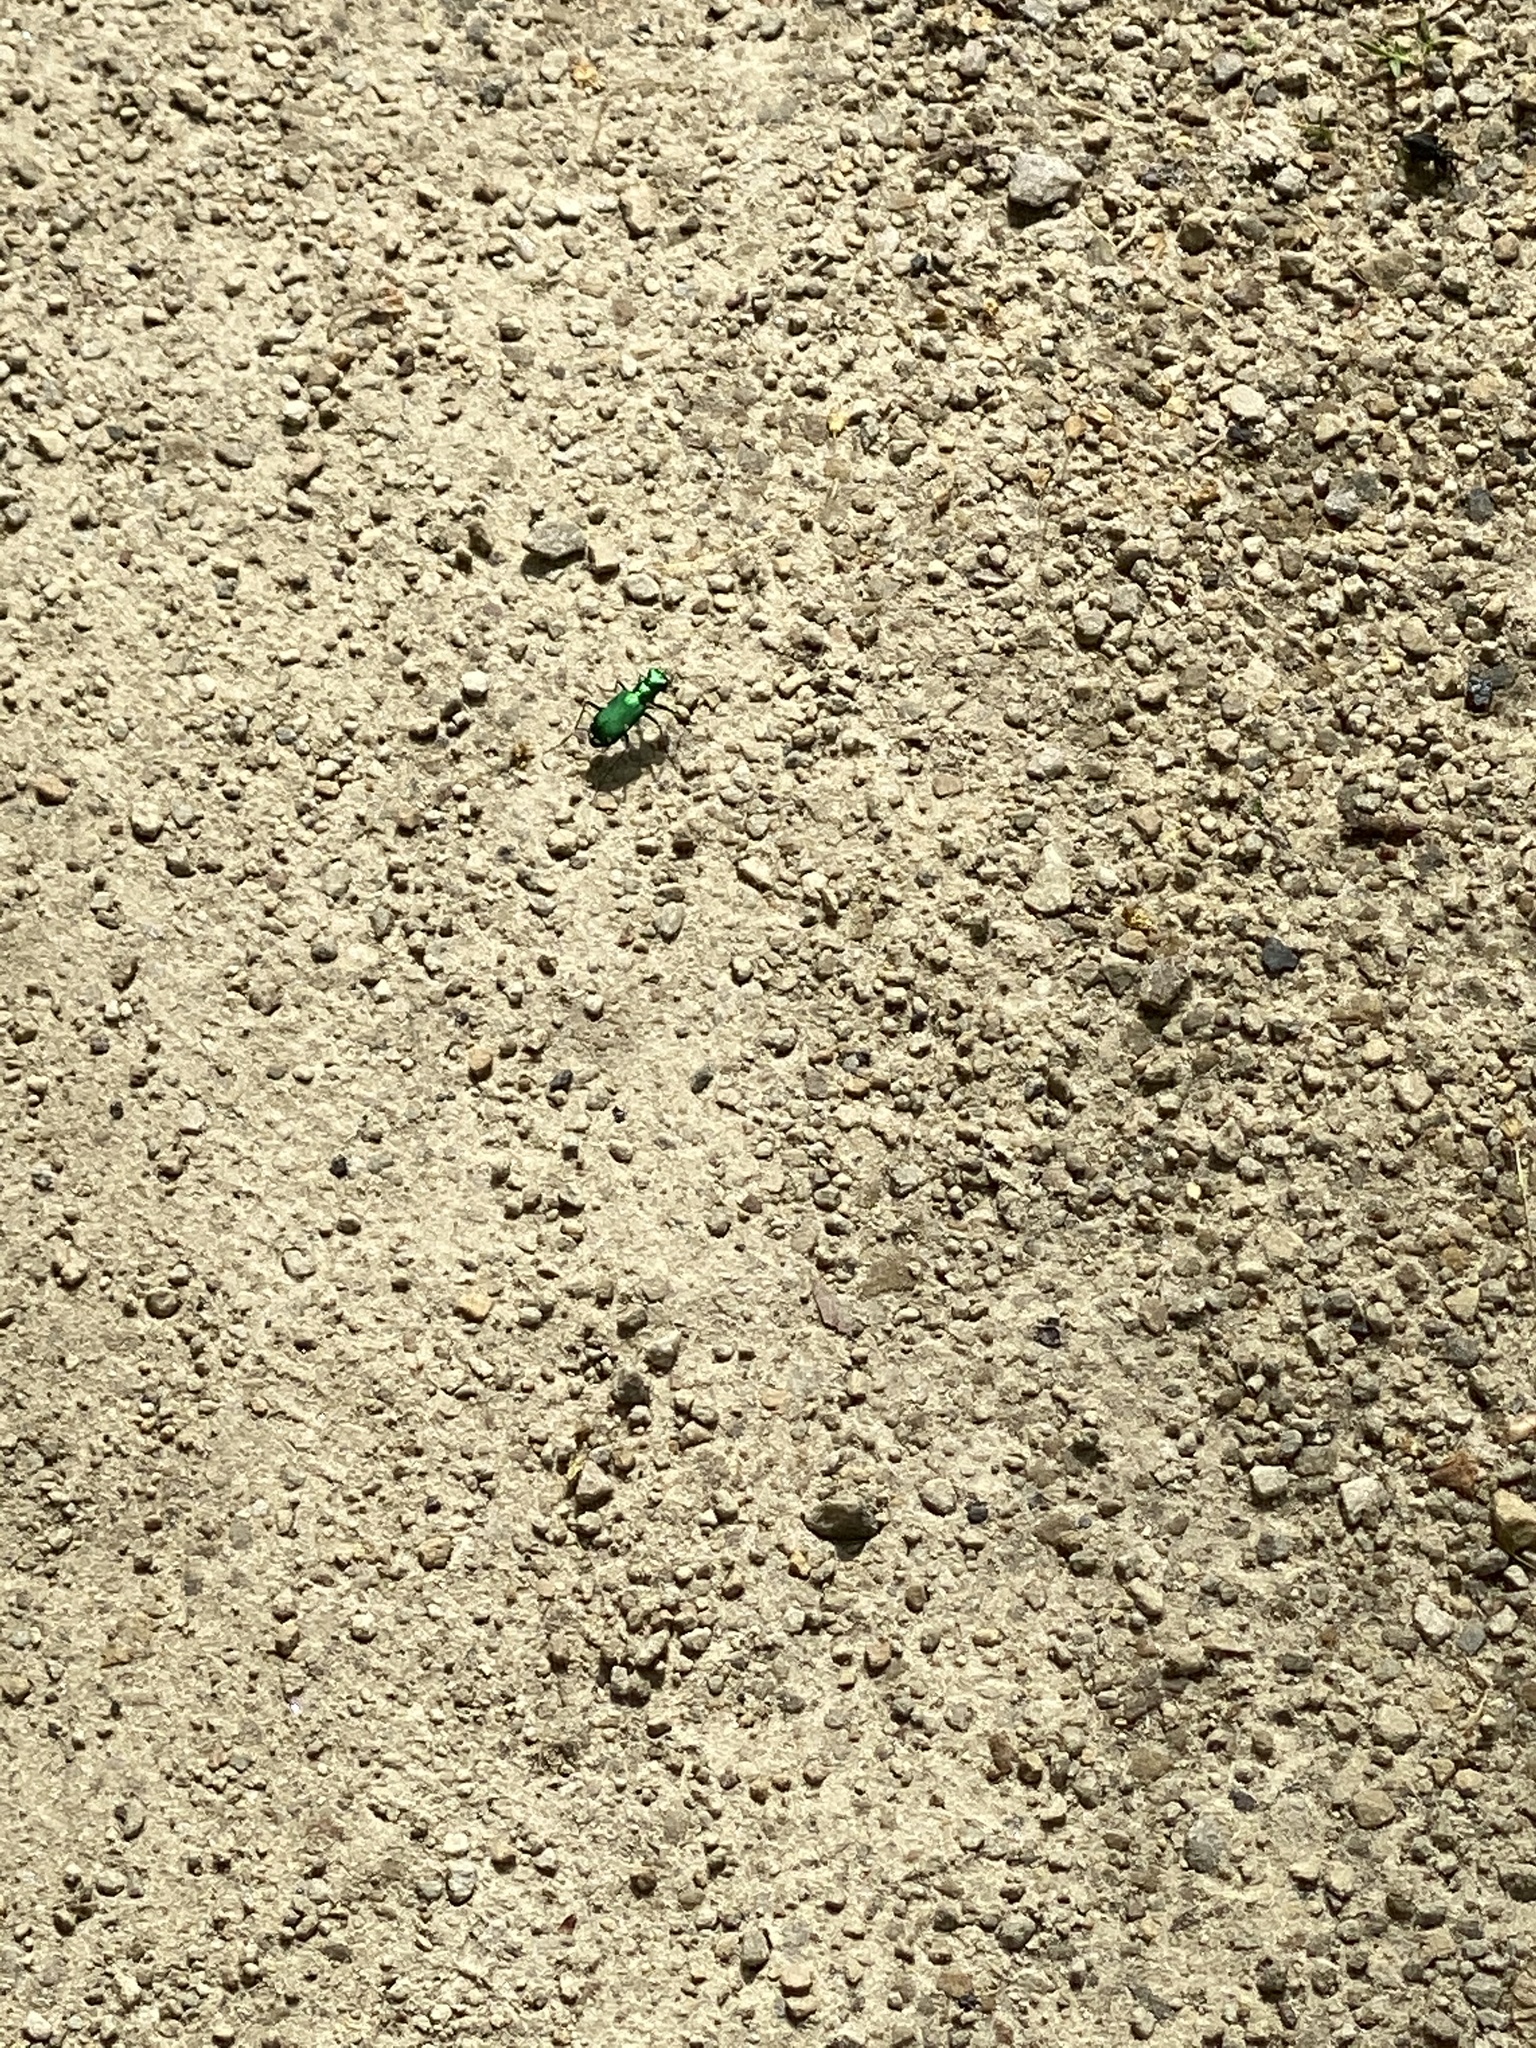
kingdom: Animalia
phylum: Arthropoda
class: Insecta
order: Coleoptera
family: Carabidae
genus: Cicindela
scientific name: Cicindela sexguttata
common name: Six-spotted tiger beetle
